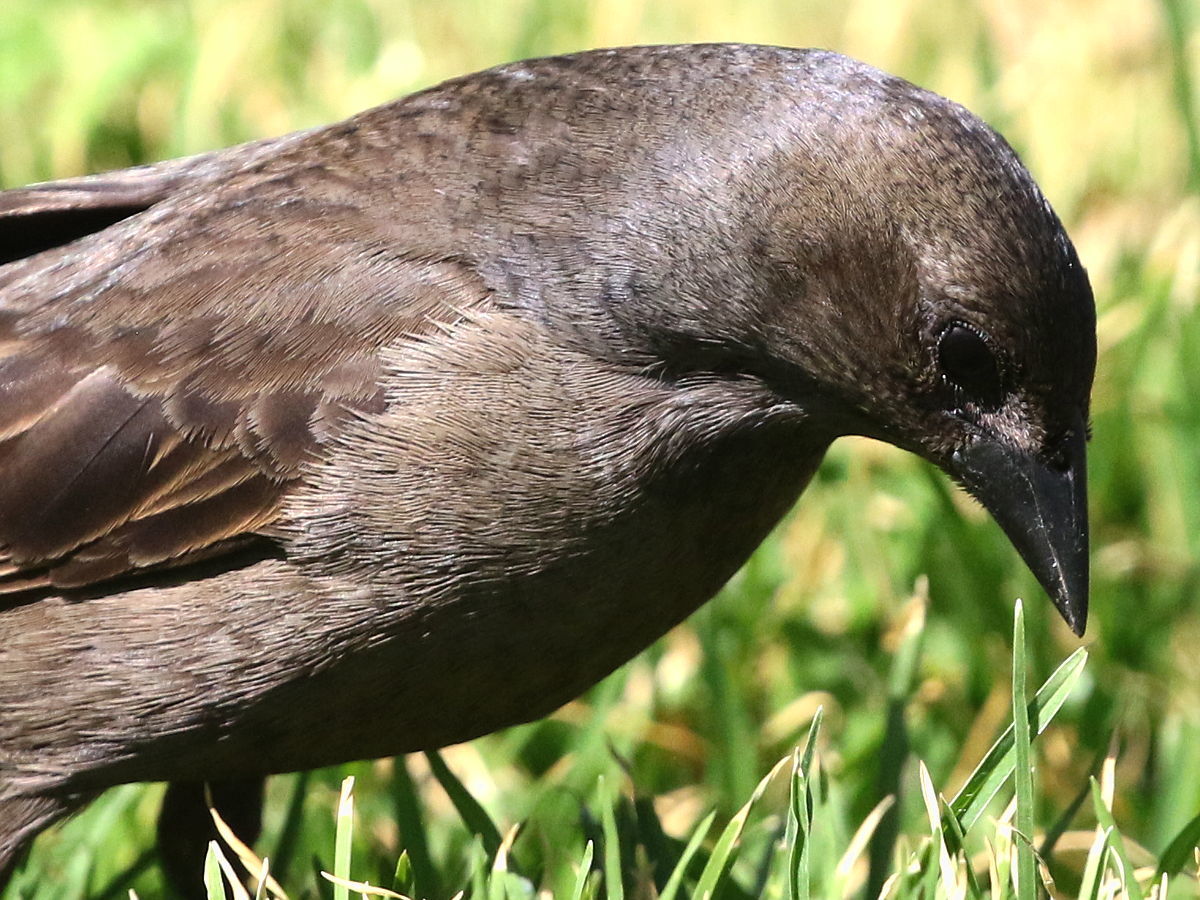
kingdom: Animalia
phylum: Chordata
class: Aves
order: Passeriformes
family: Icteridae
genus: Molothrus
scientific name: Molothrus bonariensis
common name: Shiny cowbird
